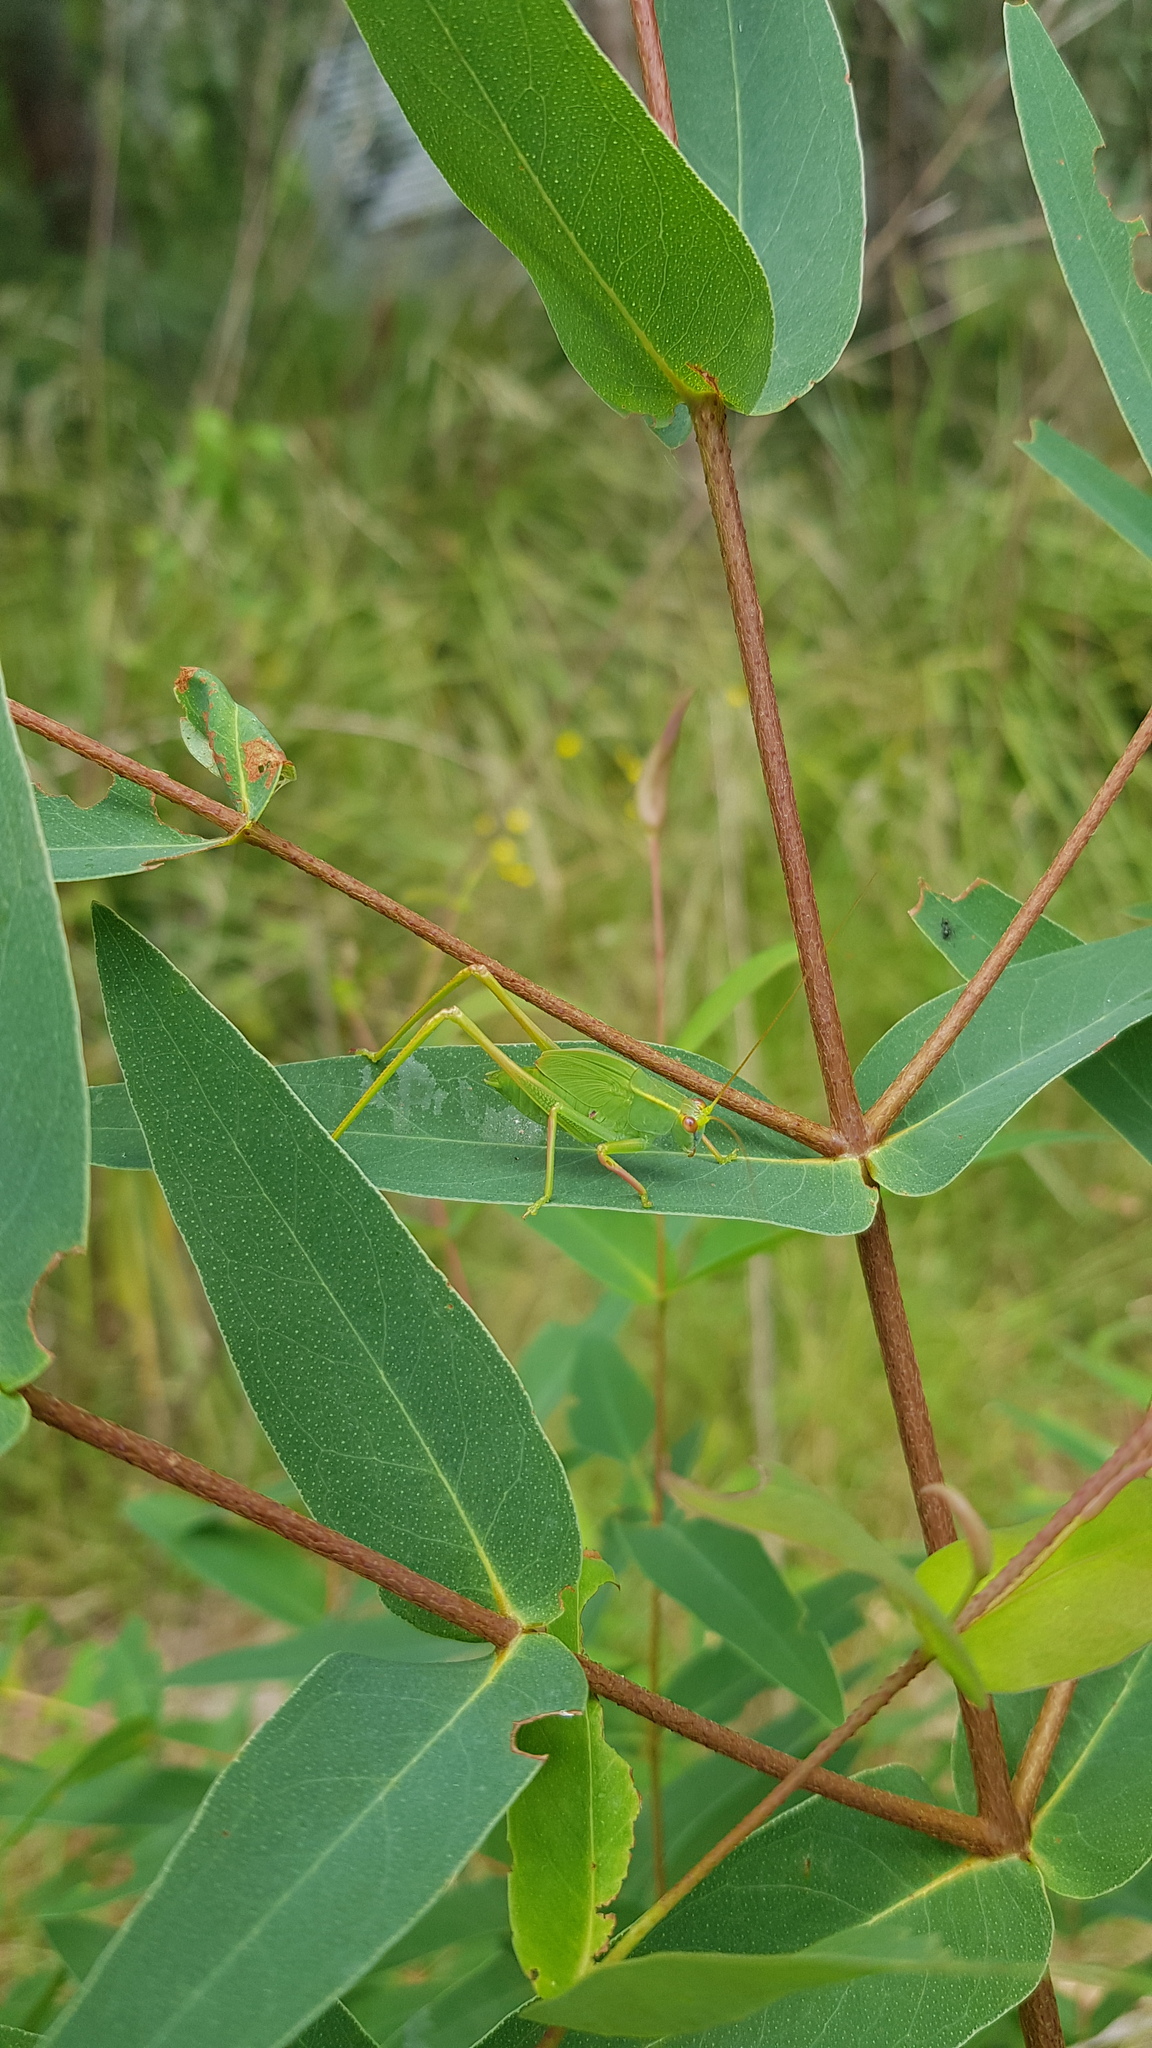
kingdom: Animalia
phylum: Arthropoda
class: Insecta
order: Orthoptera
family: Tettigoniidae
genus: Torbia
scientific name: Torbia viridissima
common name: Non-predaceous gum leaf katydid
